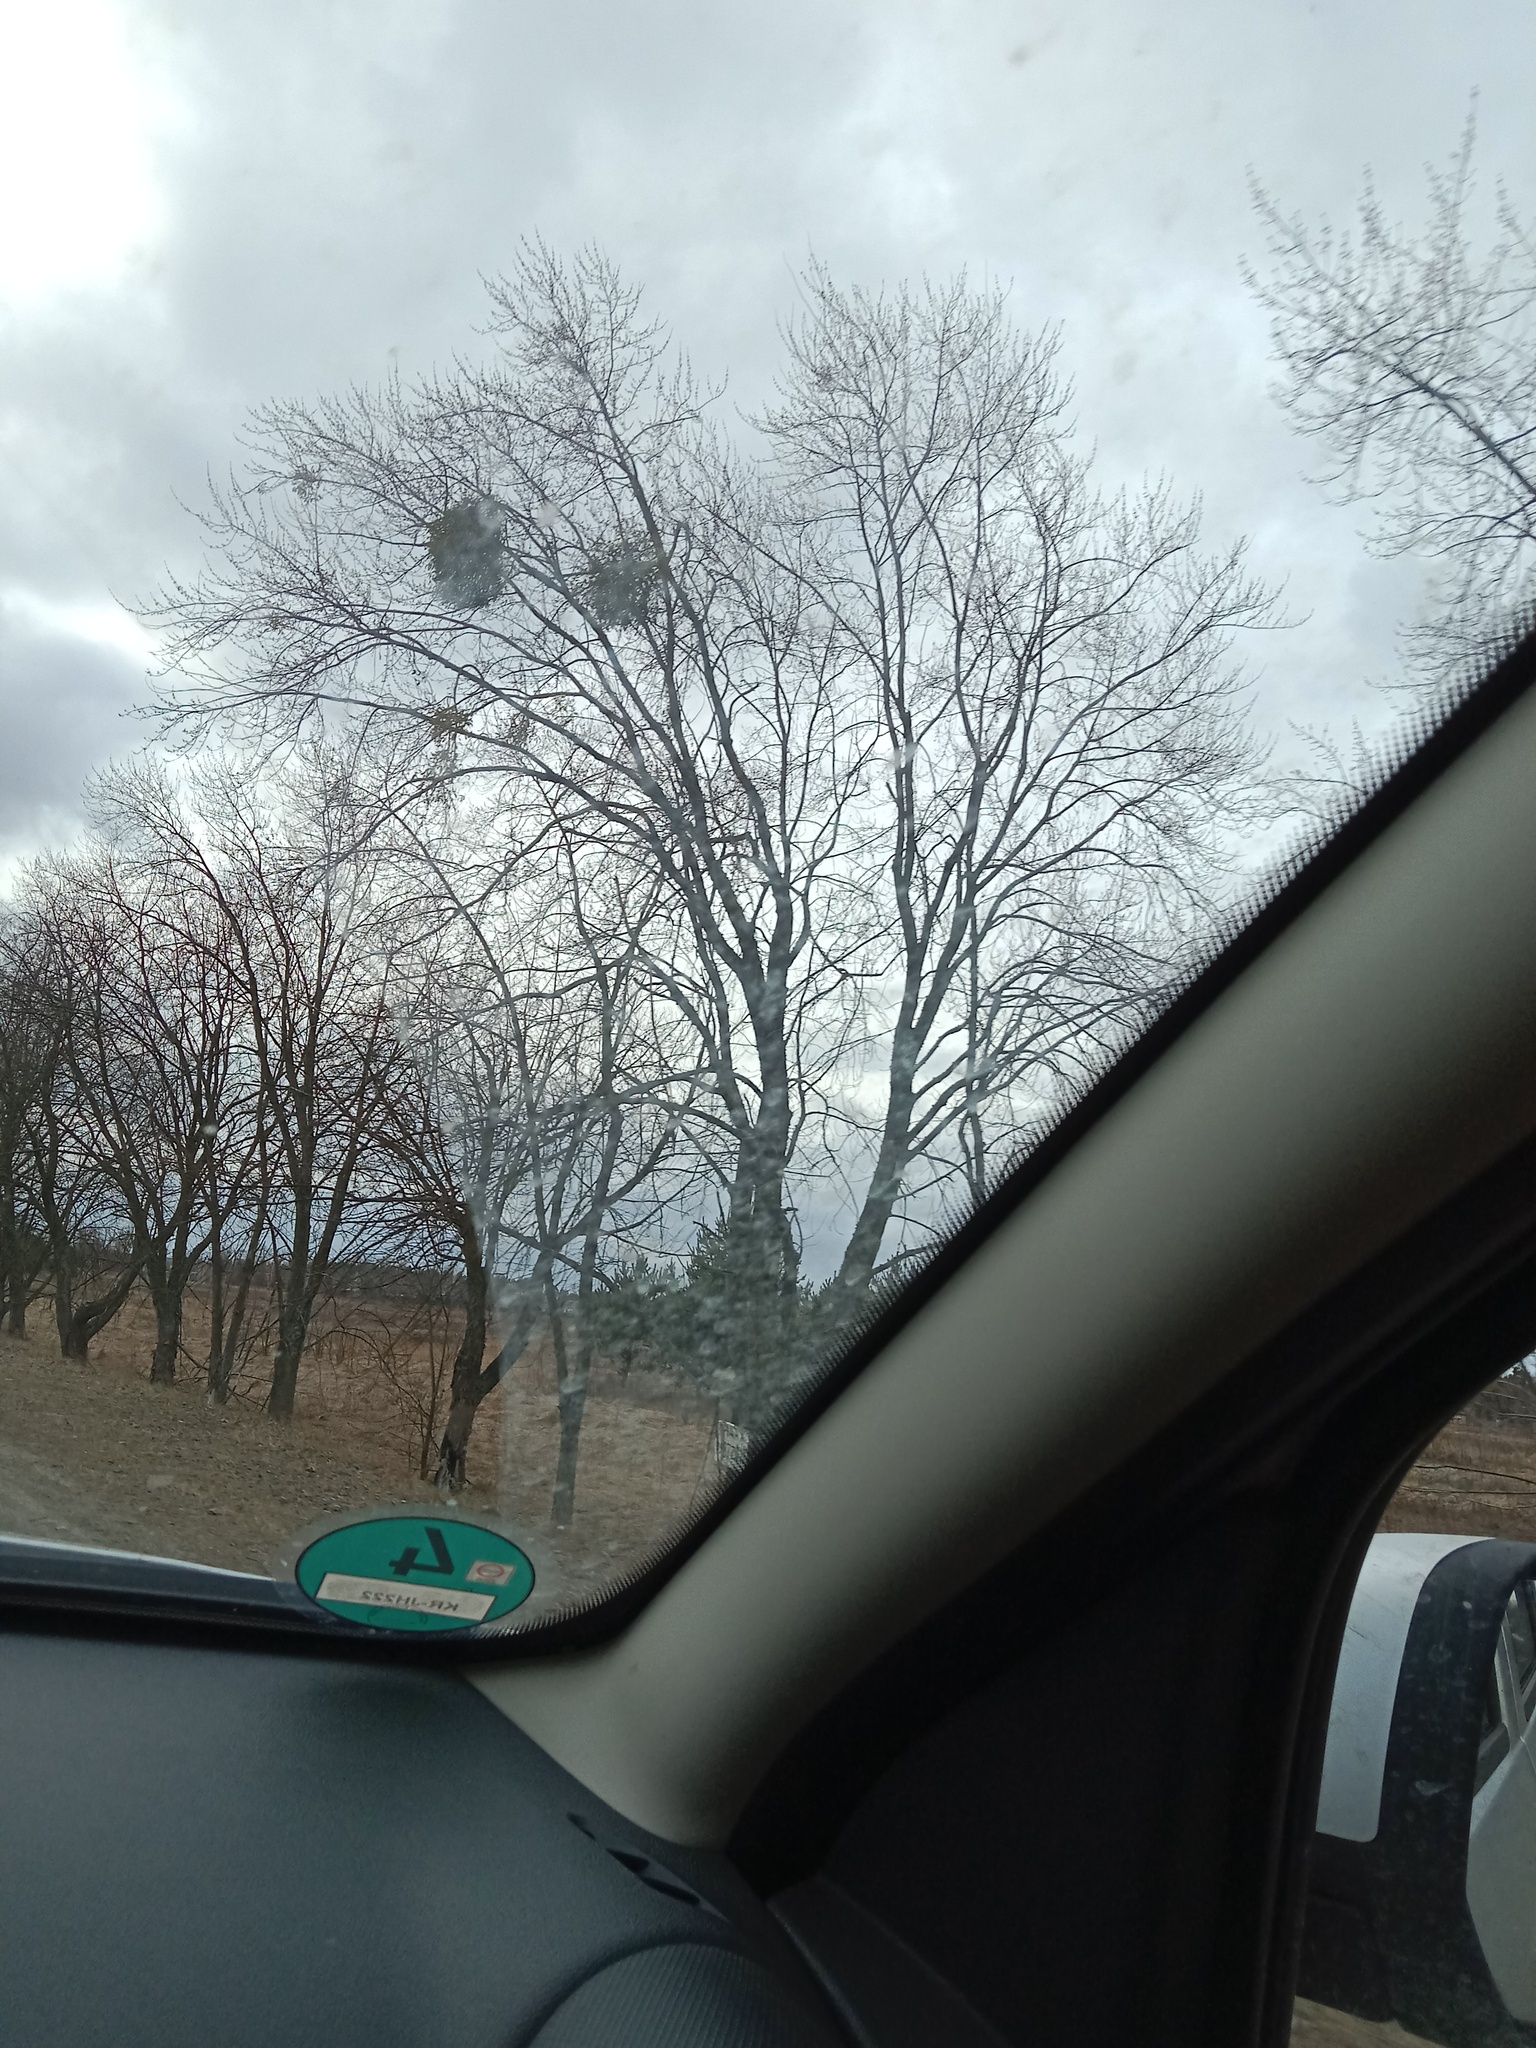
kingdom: Plantae
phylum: Tracheophyta
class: Magnoliopsida
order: Santalales
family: Viscaceae
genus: Viscum
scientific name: Viscum album
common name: Mistletoe
